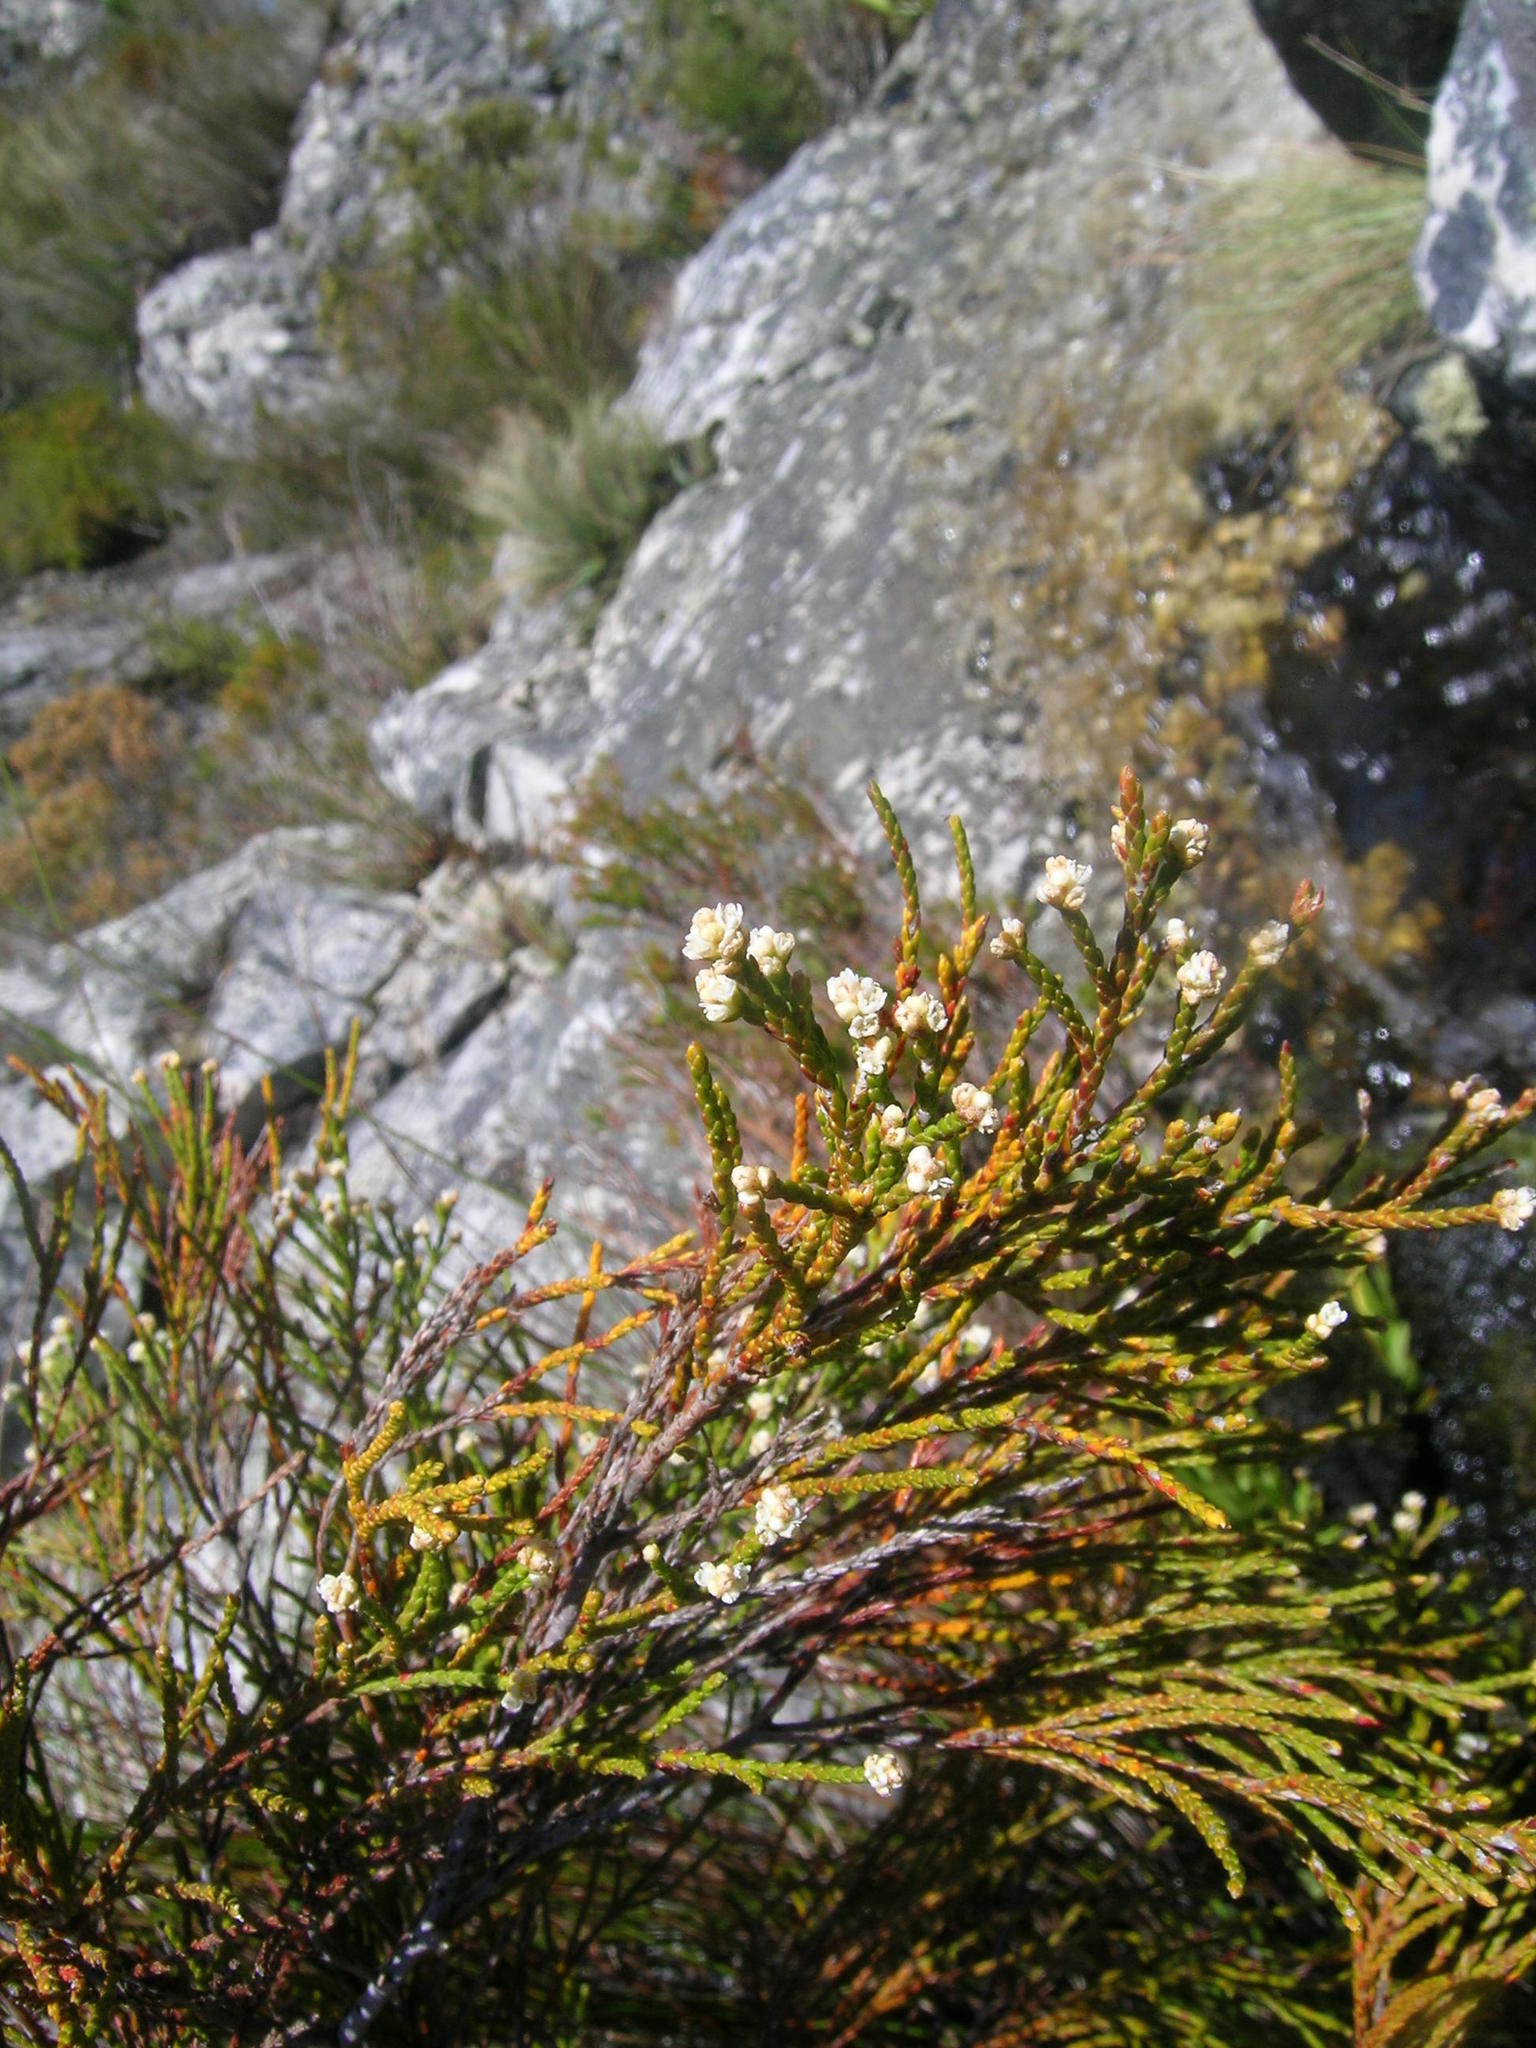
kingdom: Plantae
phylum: Tracheophyta
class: Magnoliopsida
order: Bruniales
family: Bruniaceae
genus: Brunia
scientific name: Brunia schlechteri
